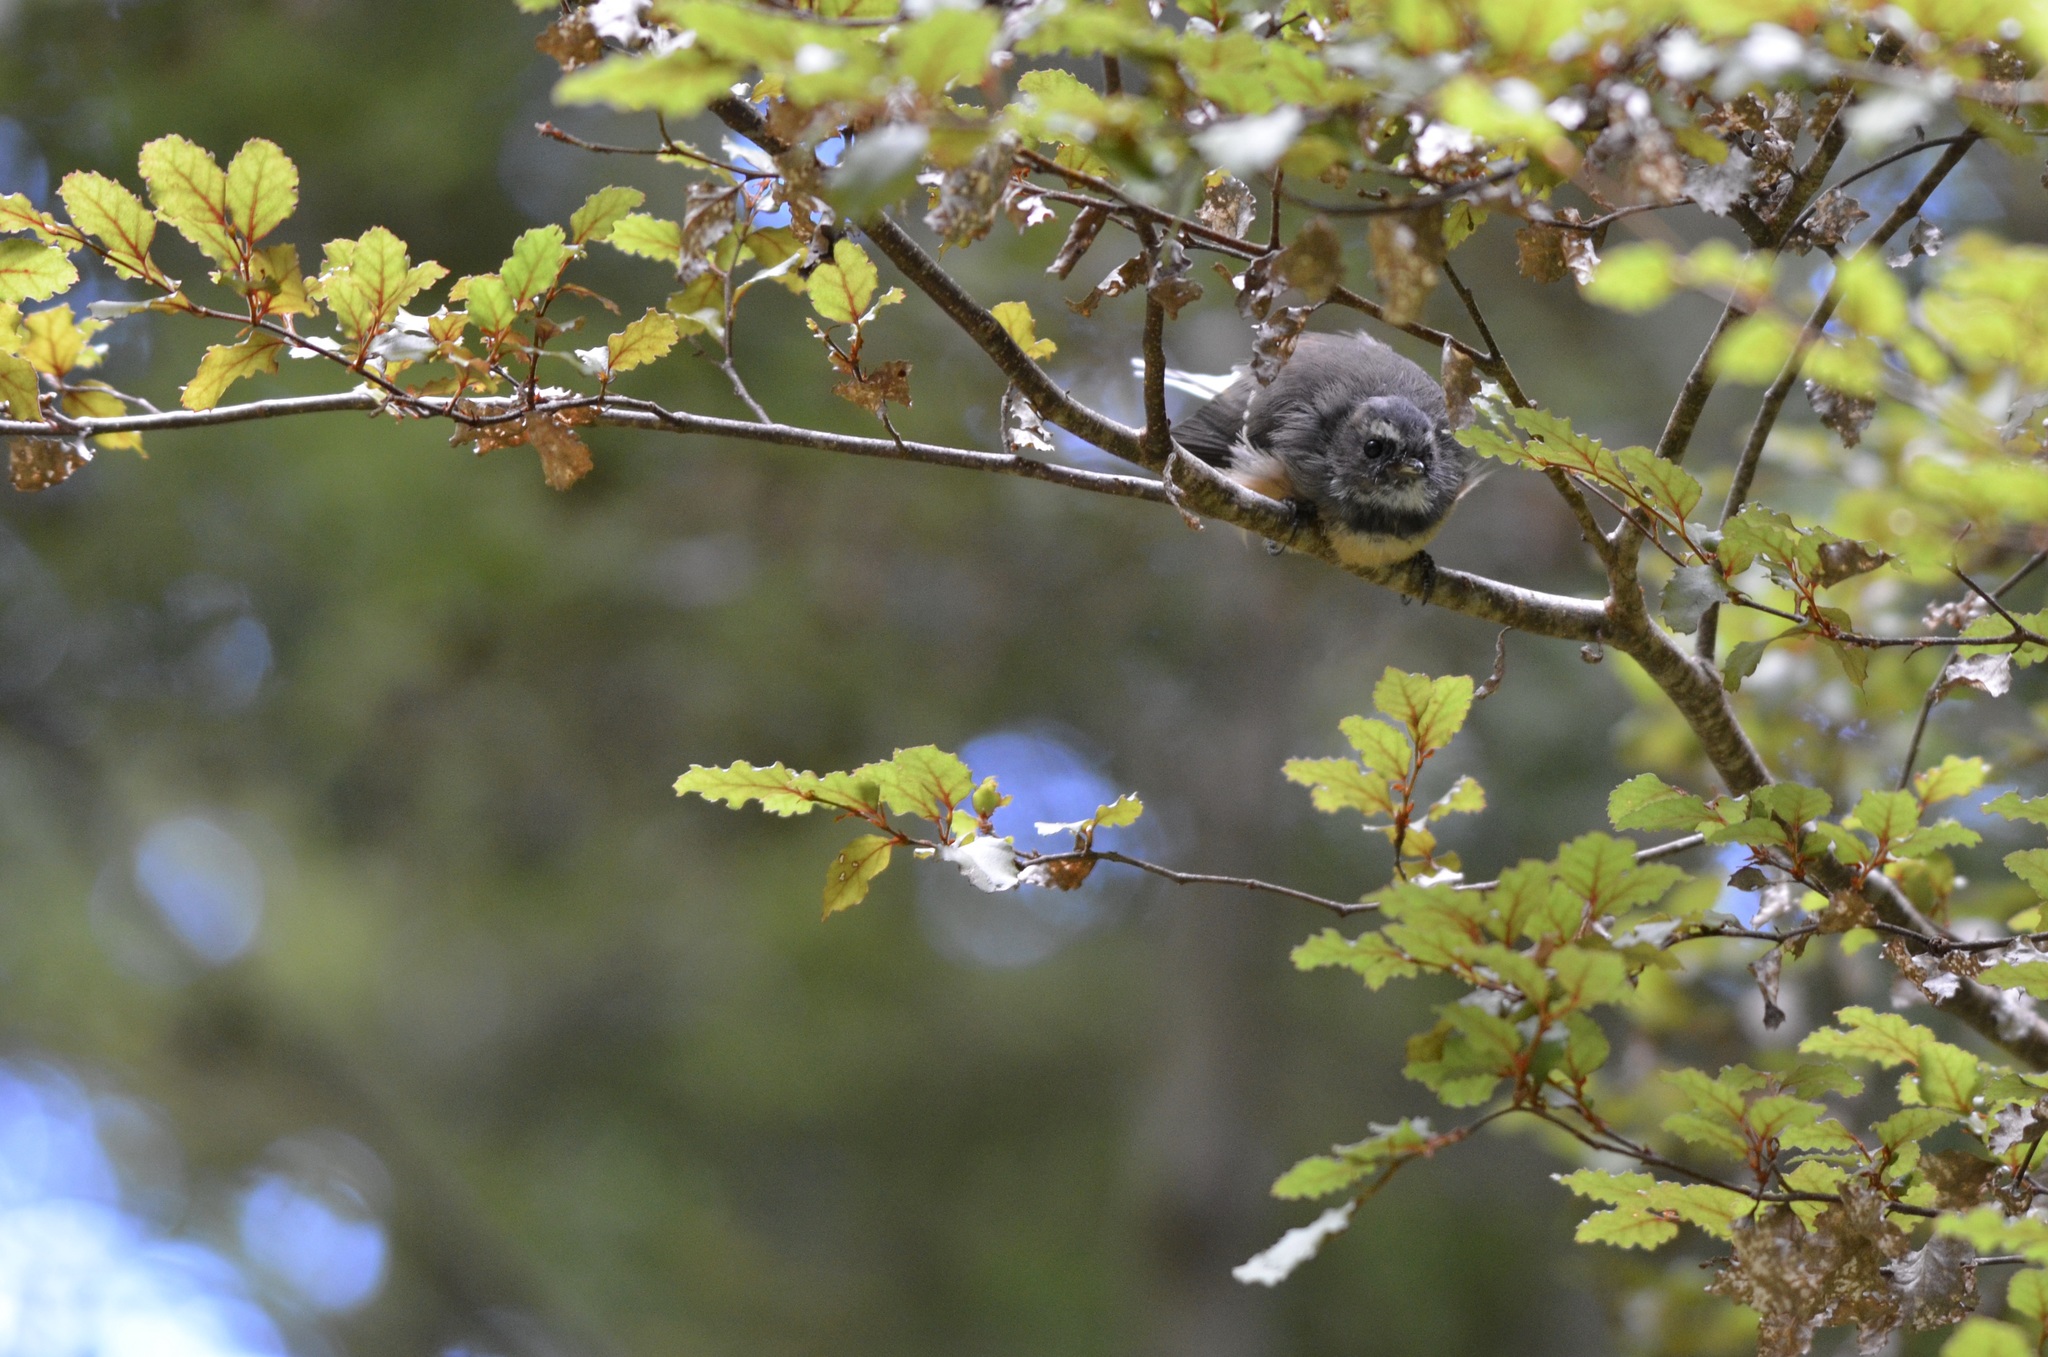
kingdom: Animalia
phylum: Chordata
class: Aves
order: Passeriformes
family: Rhipiduridae
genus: Rhipidura
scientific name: Rhipidura fuliginosa
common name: New zealand fantail
